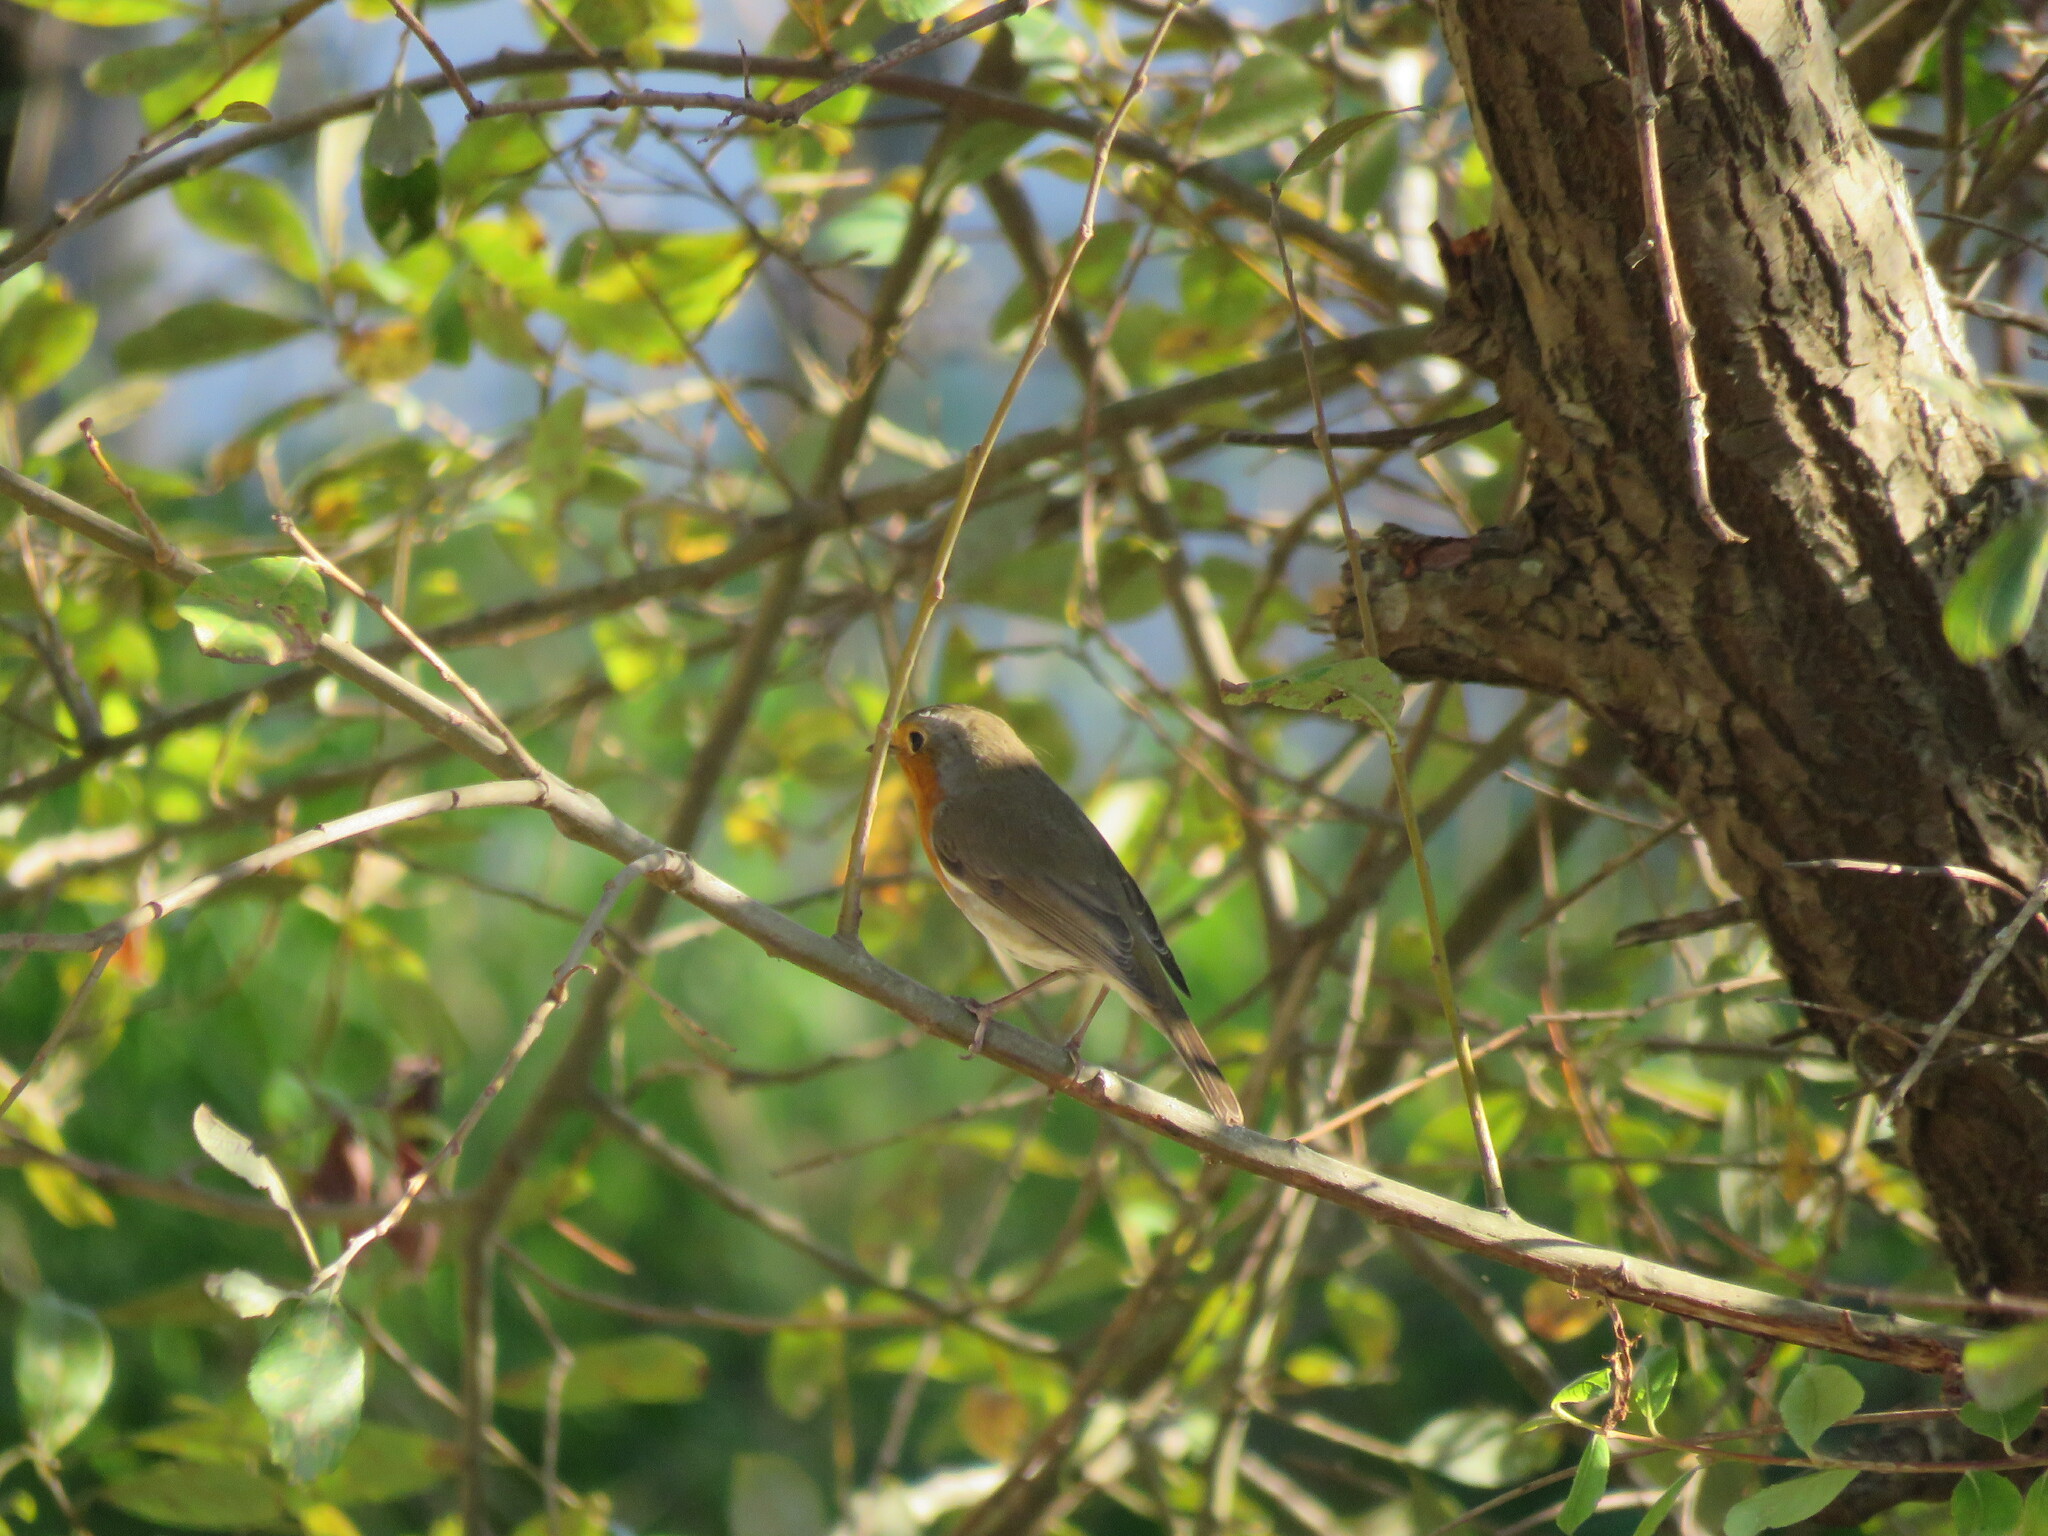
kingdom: Animalia
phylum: Chordata
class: Aves
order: Passeriformes
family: Muscicapidae
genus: Erithacus
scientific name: Erithacus rubecula
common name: European robin
